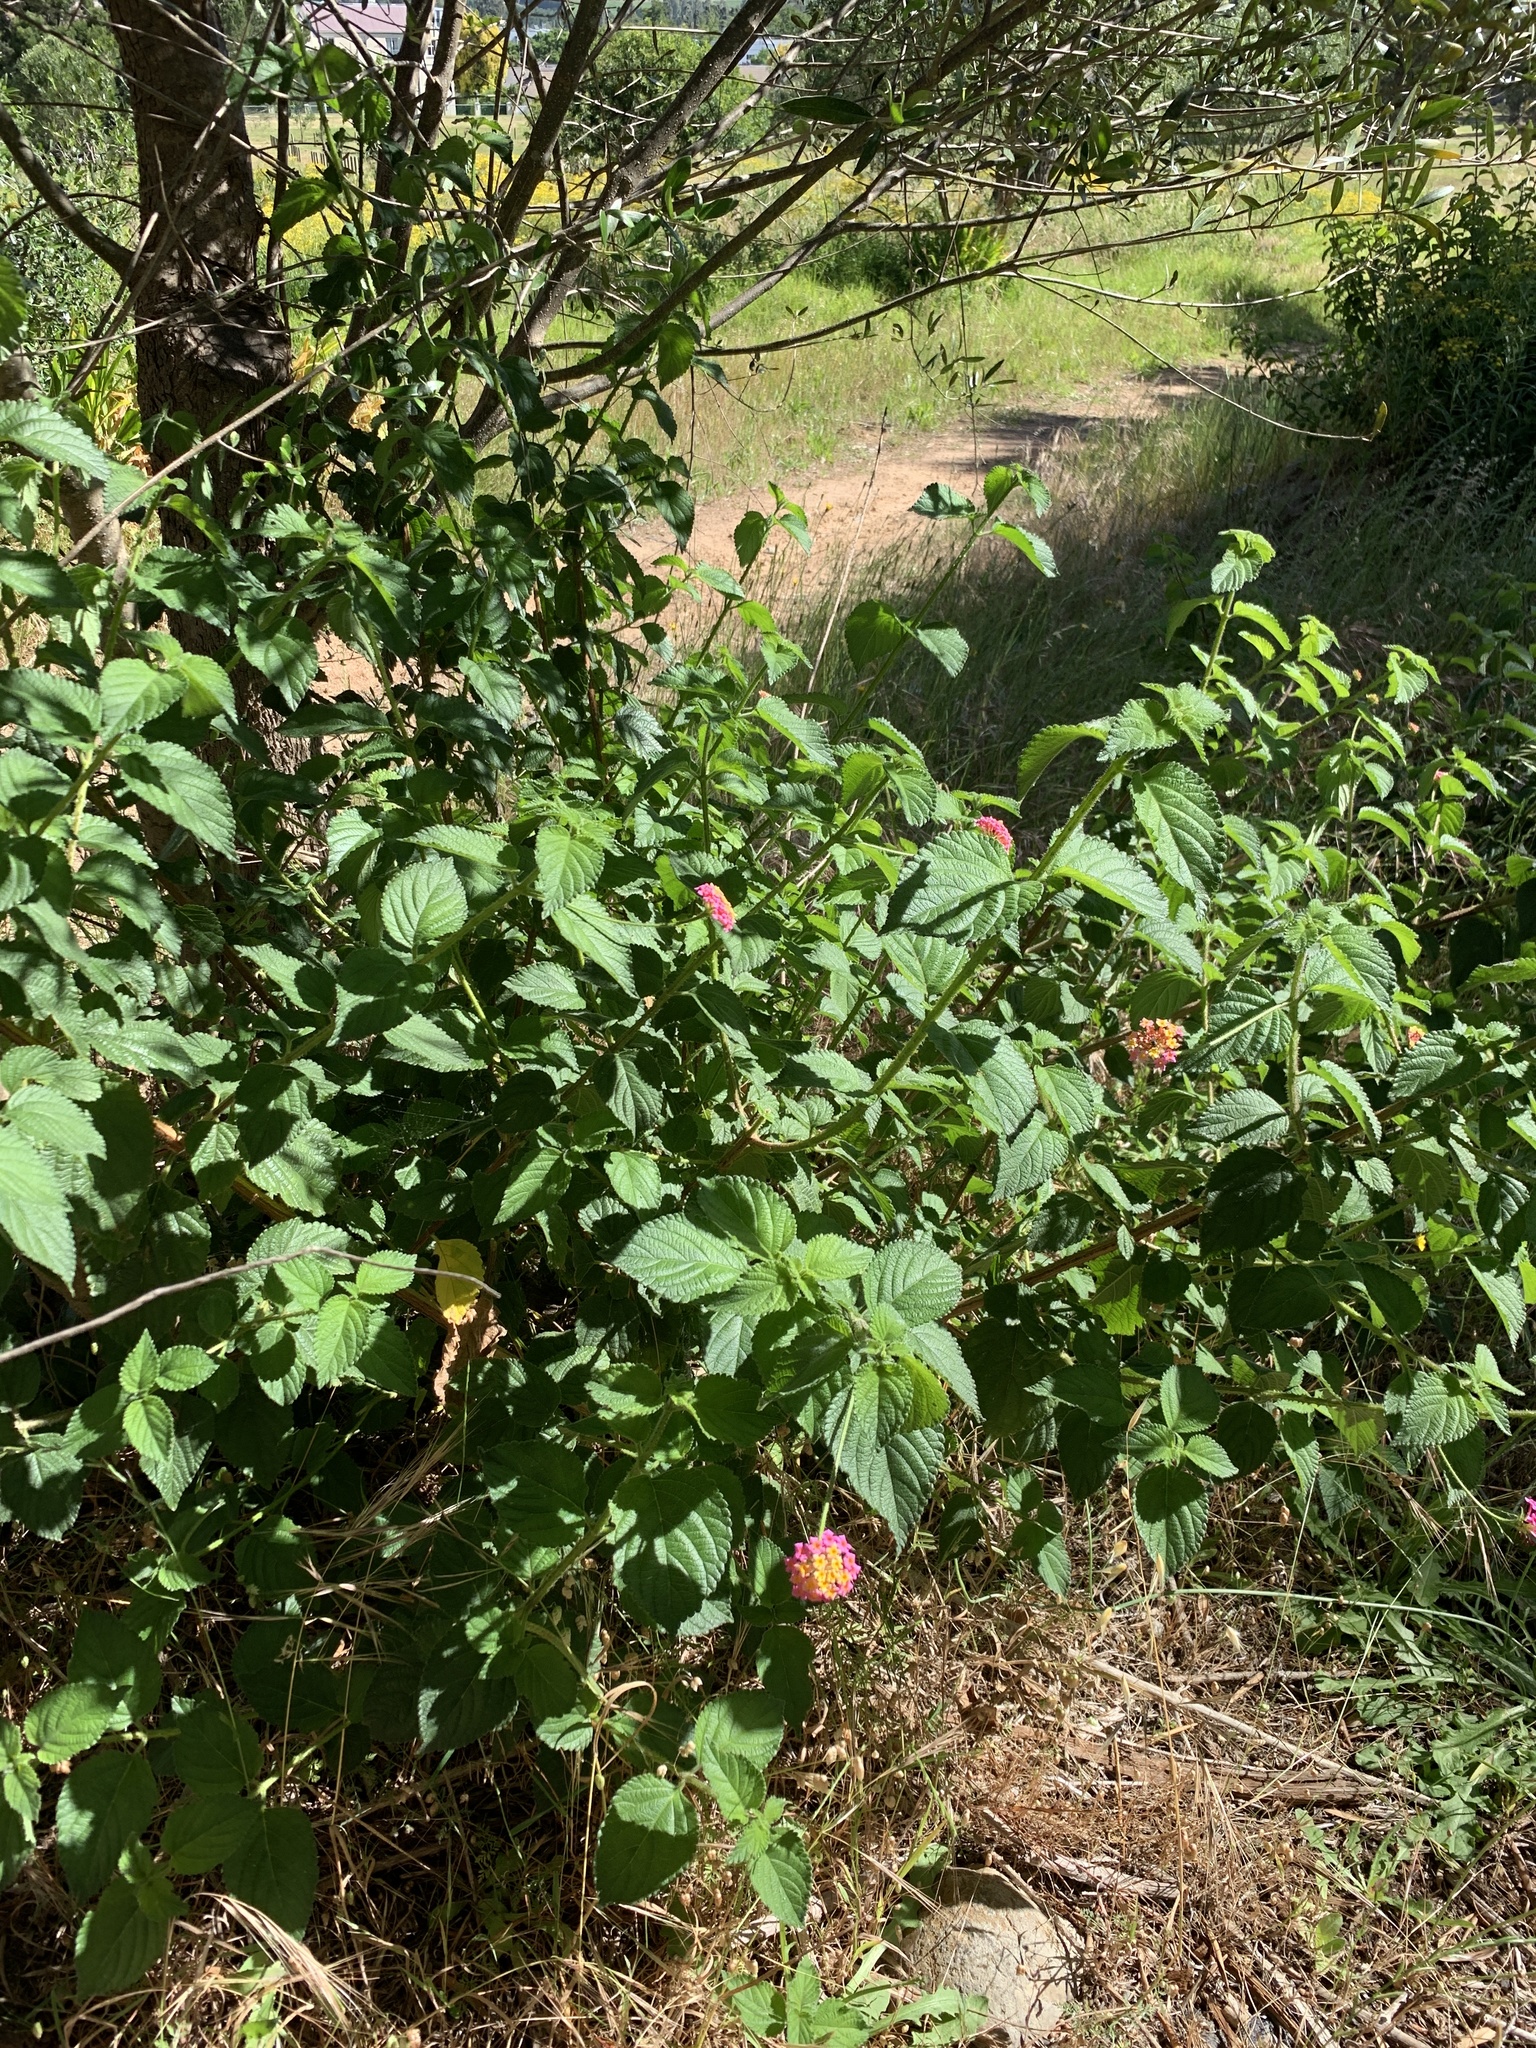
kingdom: Plantae
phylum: Tracheophyta
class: Magnoliopsida
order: Lamiales
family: Verbenaceae
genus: Lantana
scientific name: Lantana camara
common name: Lantana
